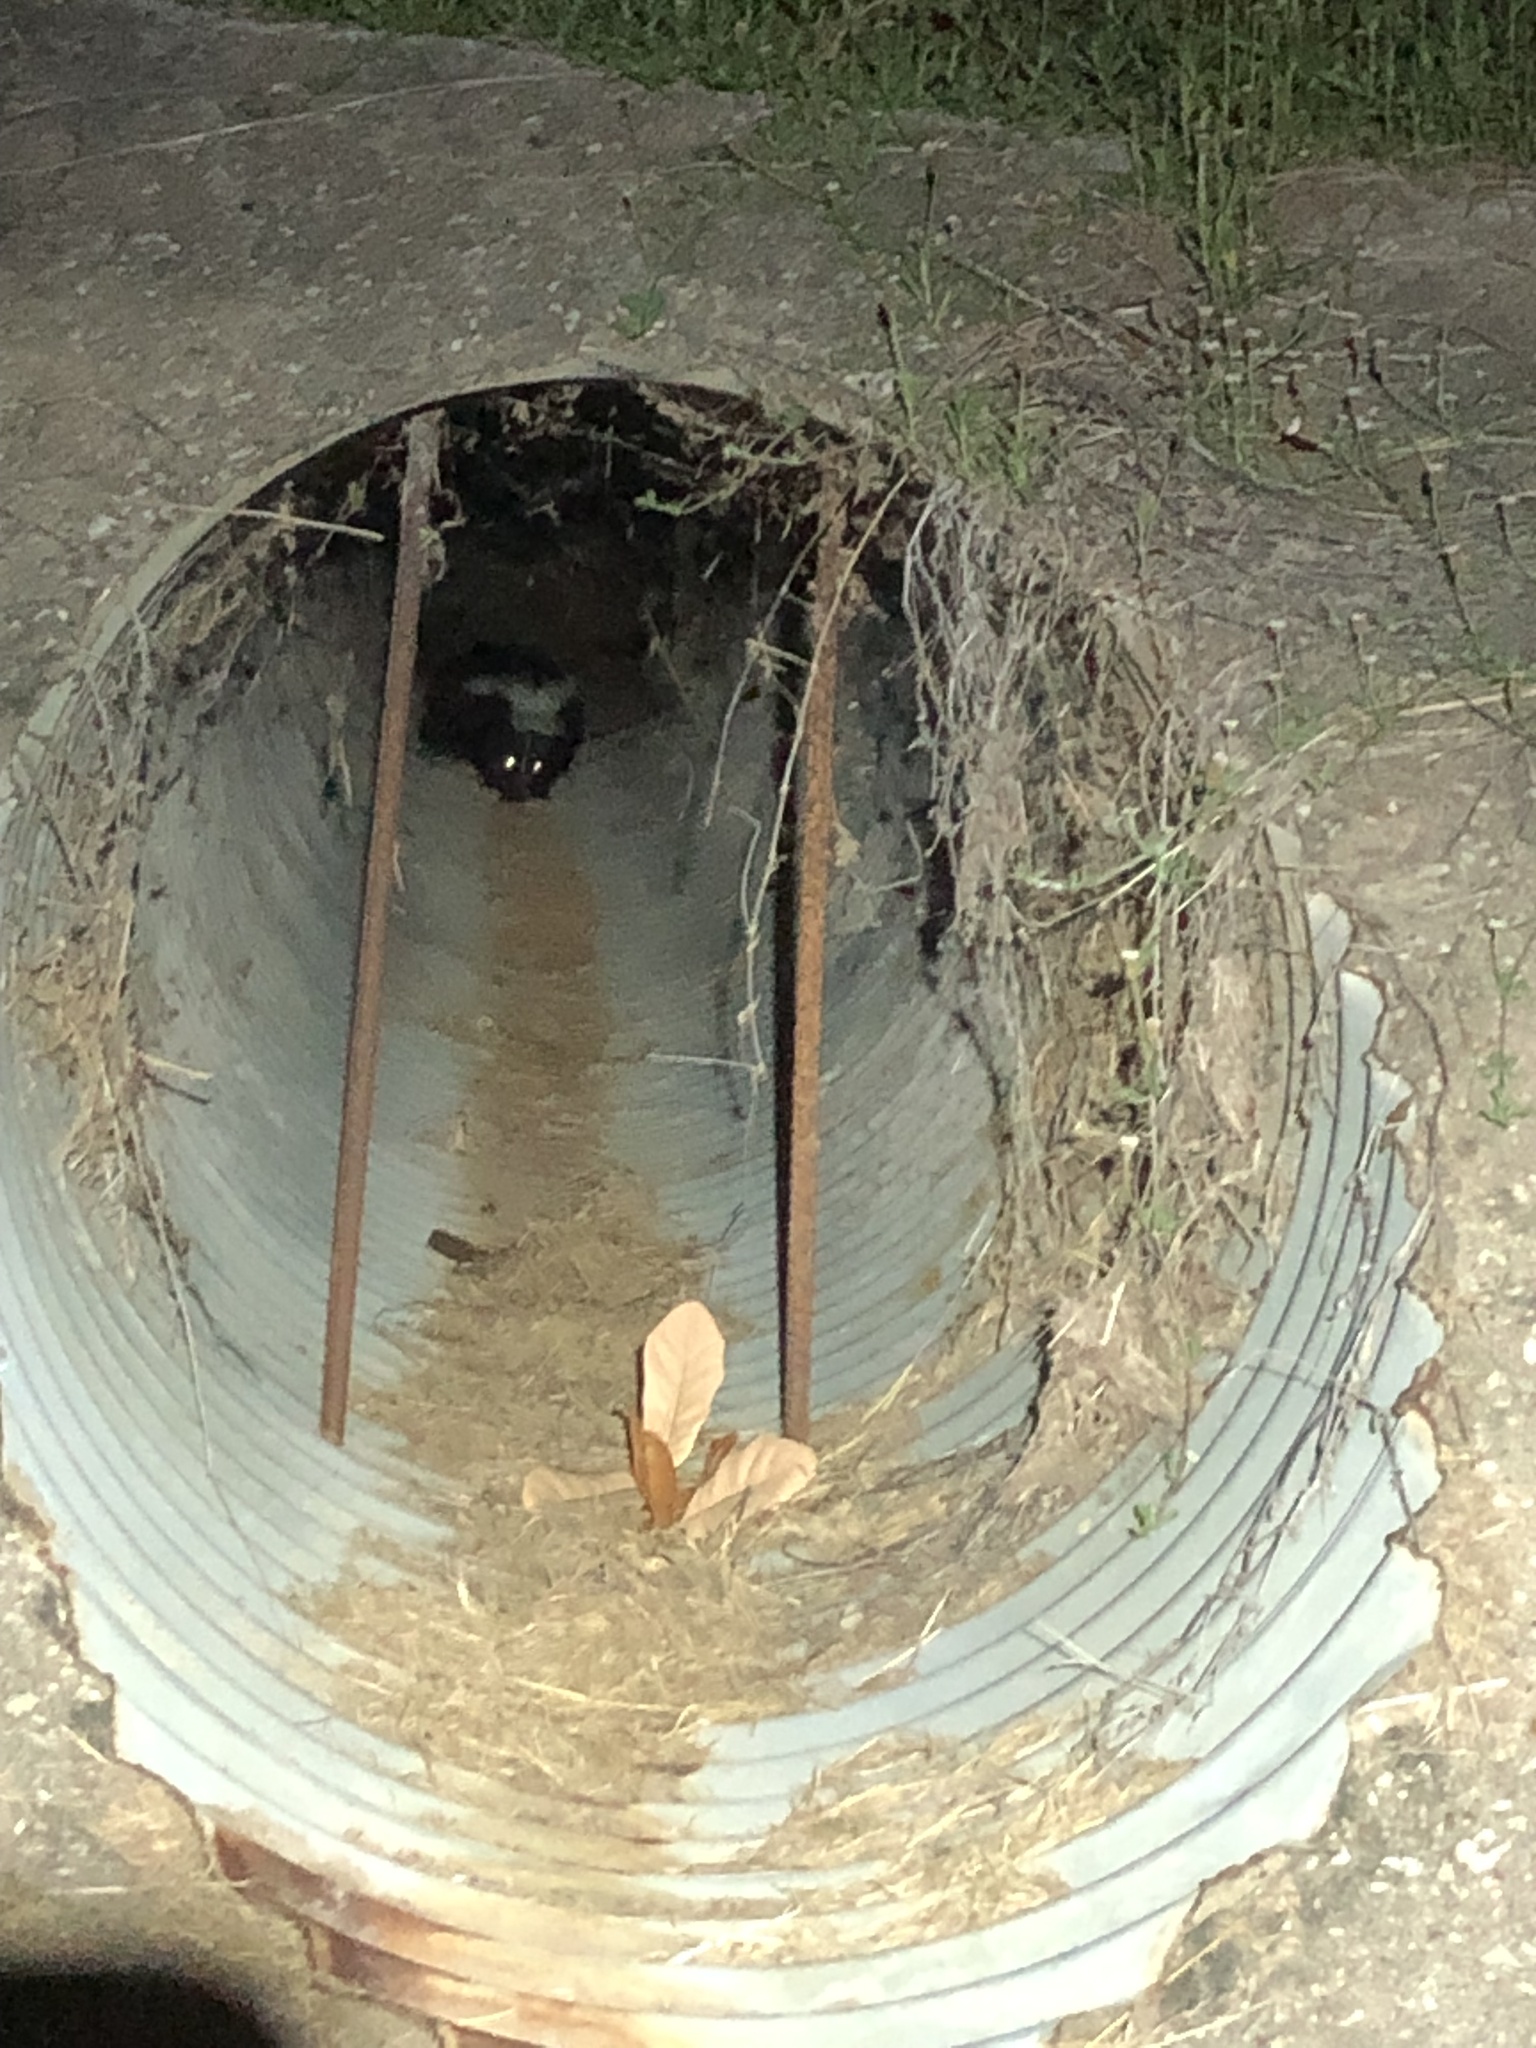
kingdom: Animalia
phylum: Chordata
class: Mammalia
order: Carnivora
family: Mephitidae
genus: Mephitis
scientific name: Mephitis mephitis
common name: Striped skunk
